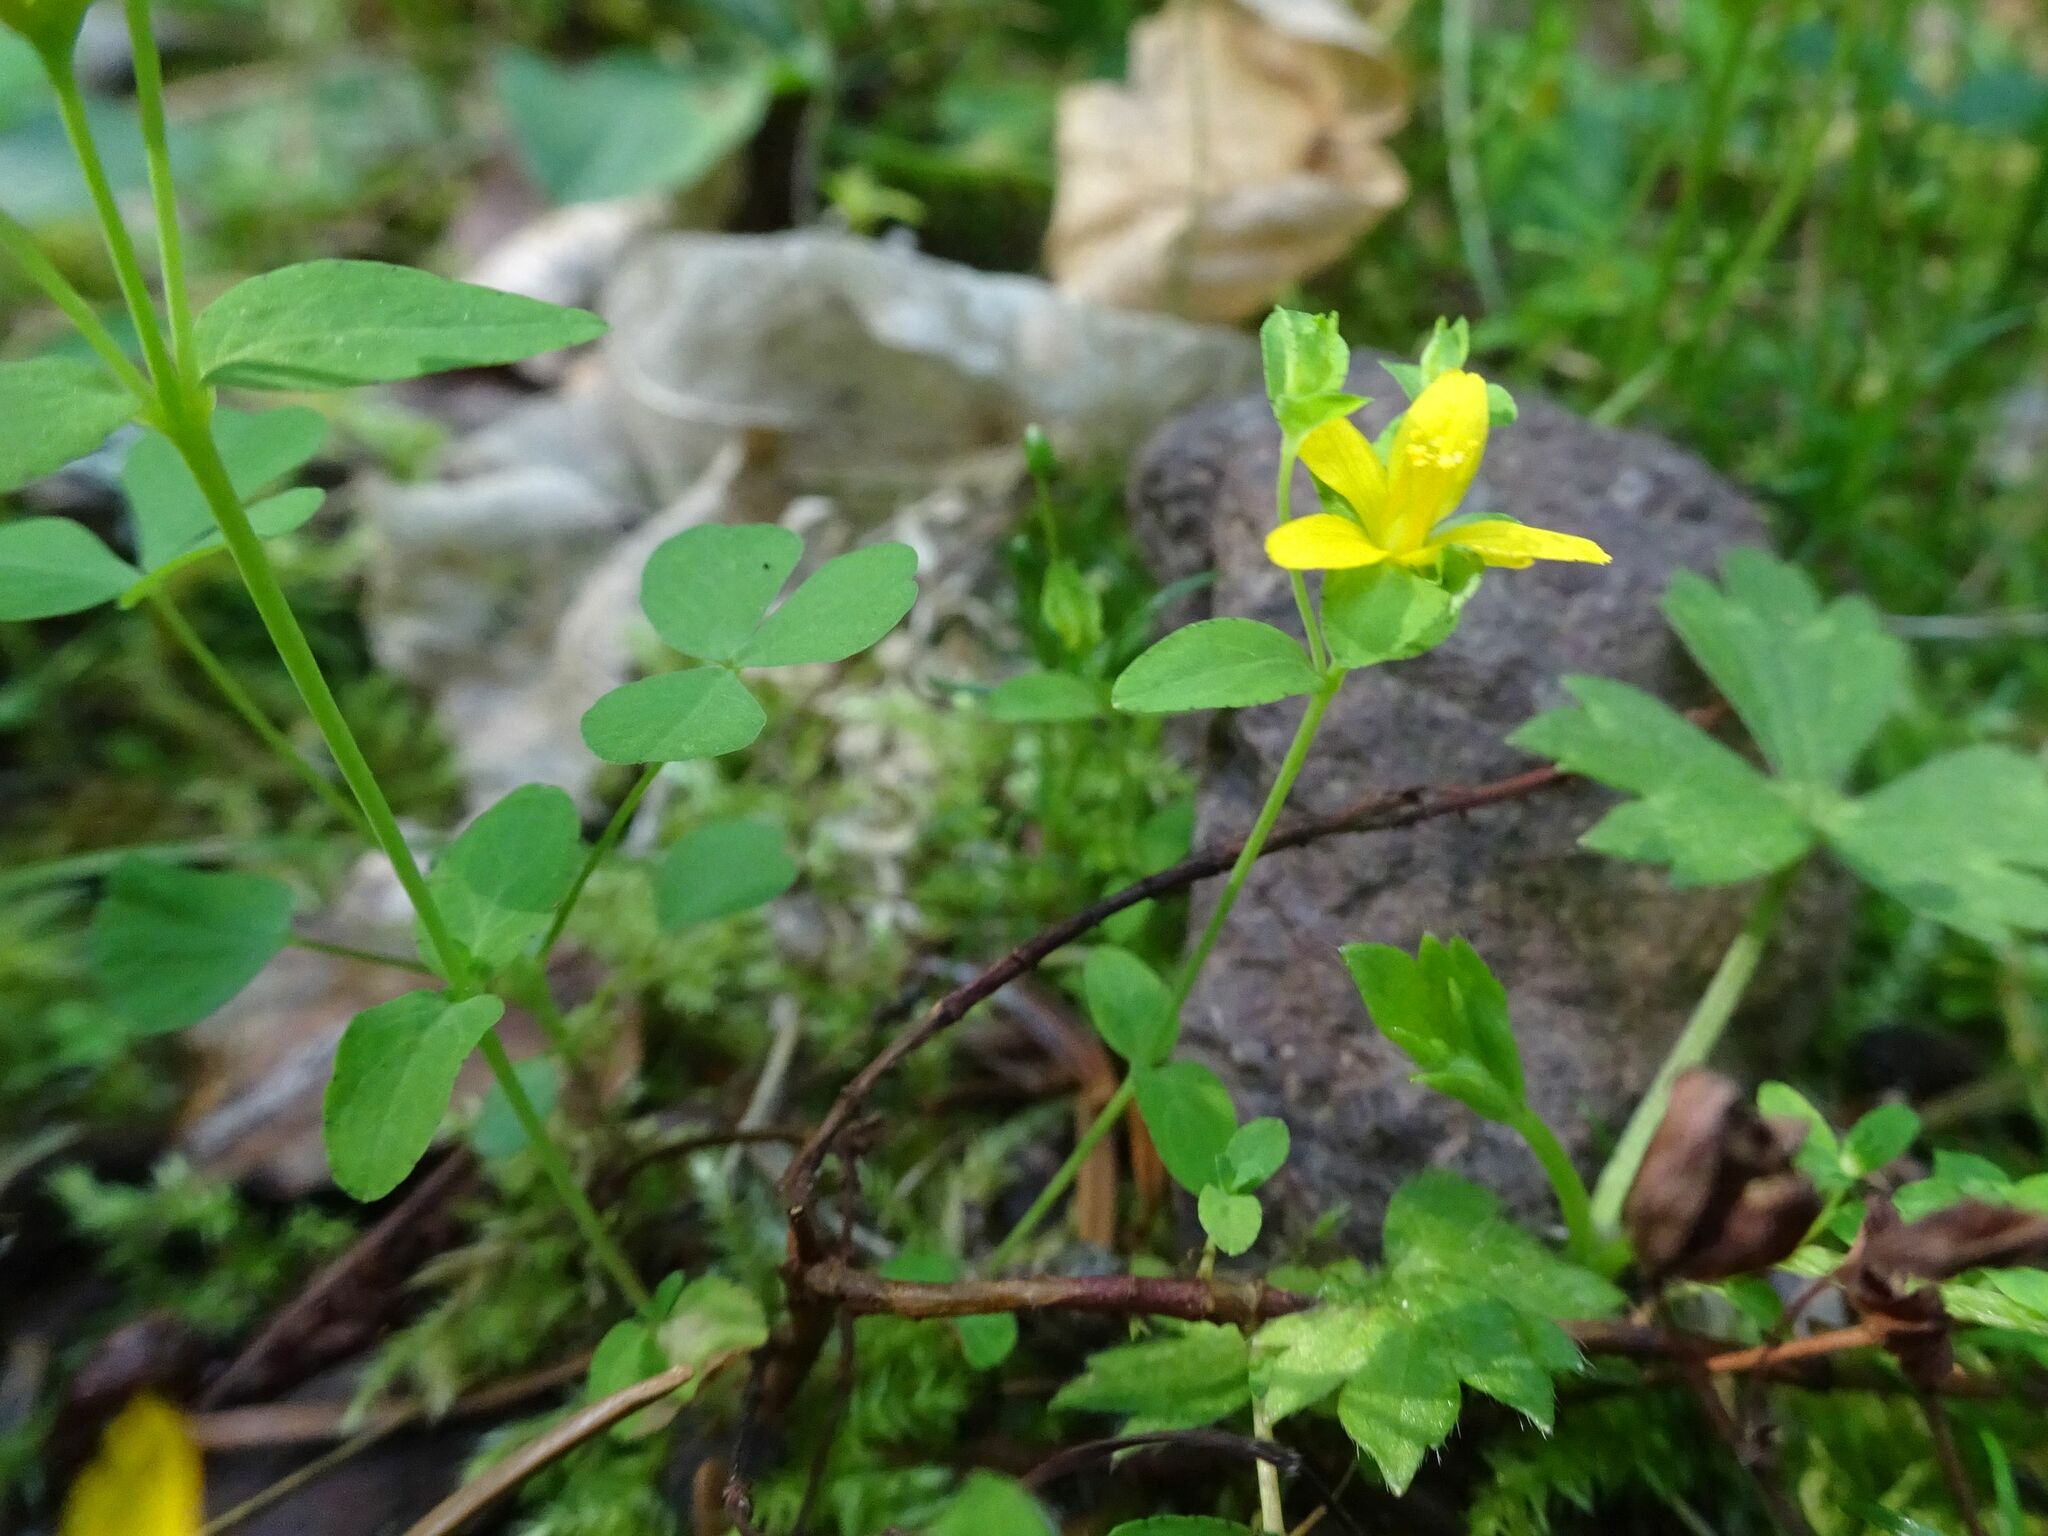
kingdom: Plantae
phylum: Tracheophyta
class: Magnoliopsida
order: Malpighiales
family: Hypericaceae
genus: Hypericum
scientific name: Hypericum humifusum
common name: Trailing st. john's-wort
